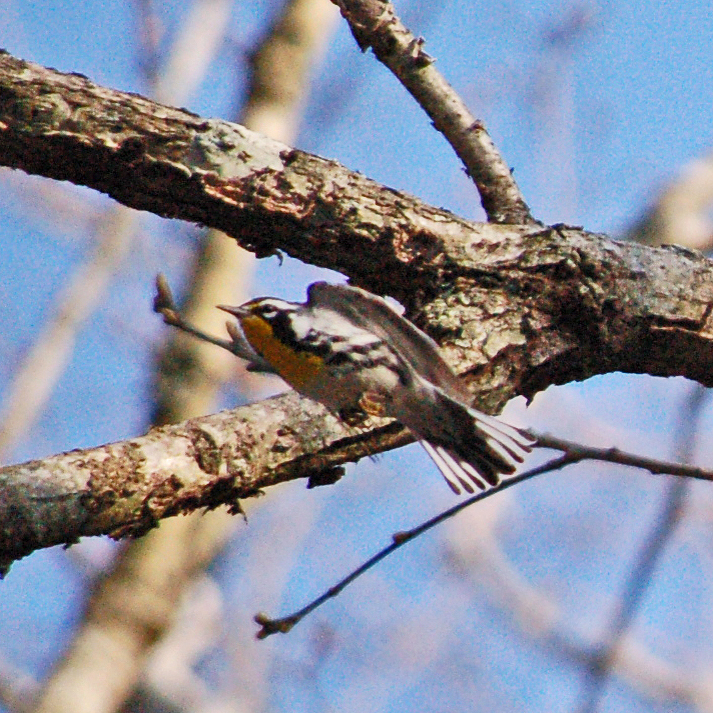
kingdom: Animalia
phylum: Chordata
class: Aves
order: Passeriformes
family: Parulidae
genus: Setophaga
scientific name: Setophaga dominica
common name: Yellow-throated warbler
